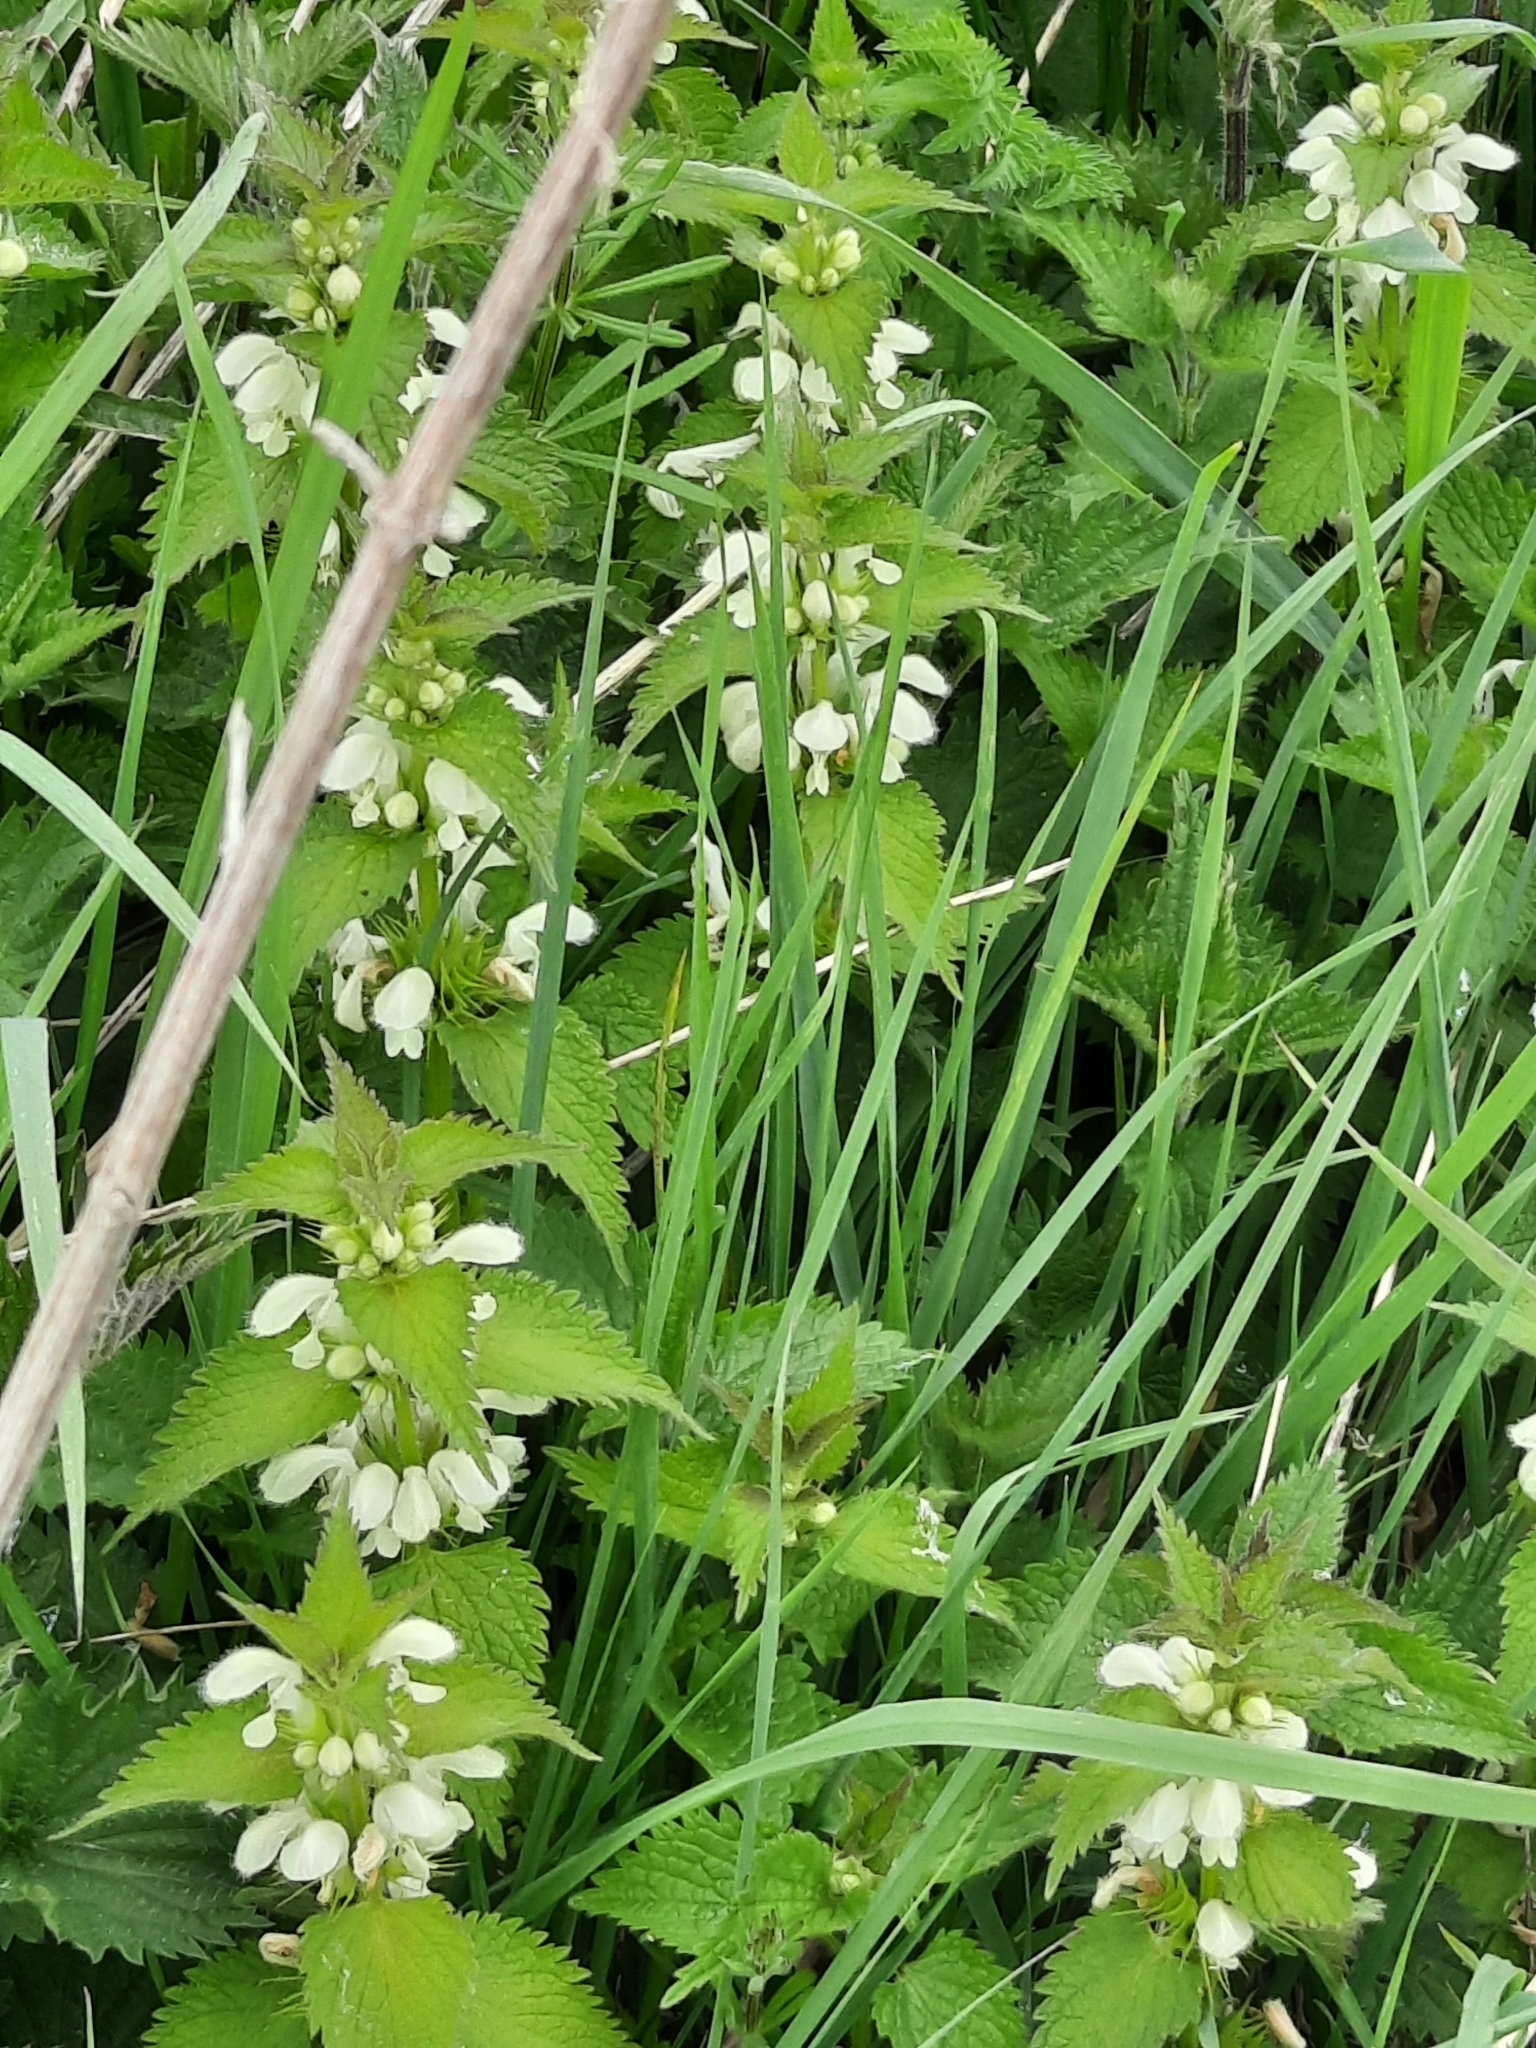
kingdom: Plantae
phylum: Tracheophyta
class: Magnoliopsida
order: Lamiales
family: Lamiaceae
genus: Lamium
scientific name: Lamium album
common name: White dead-nettle
